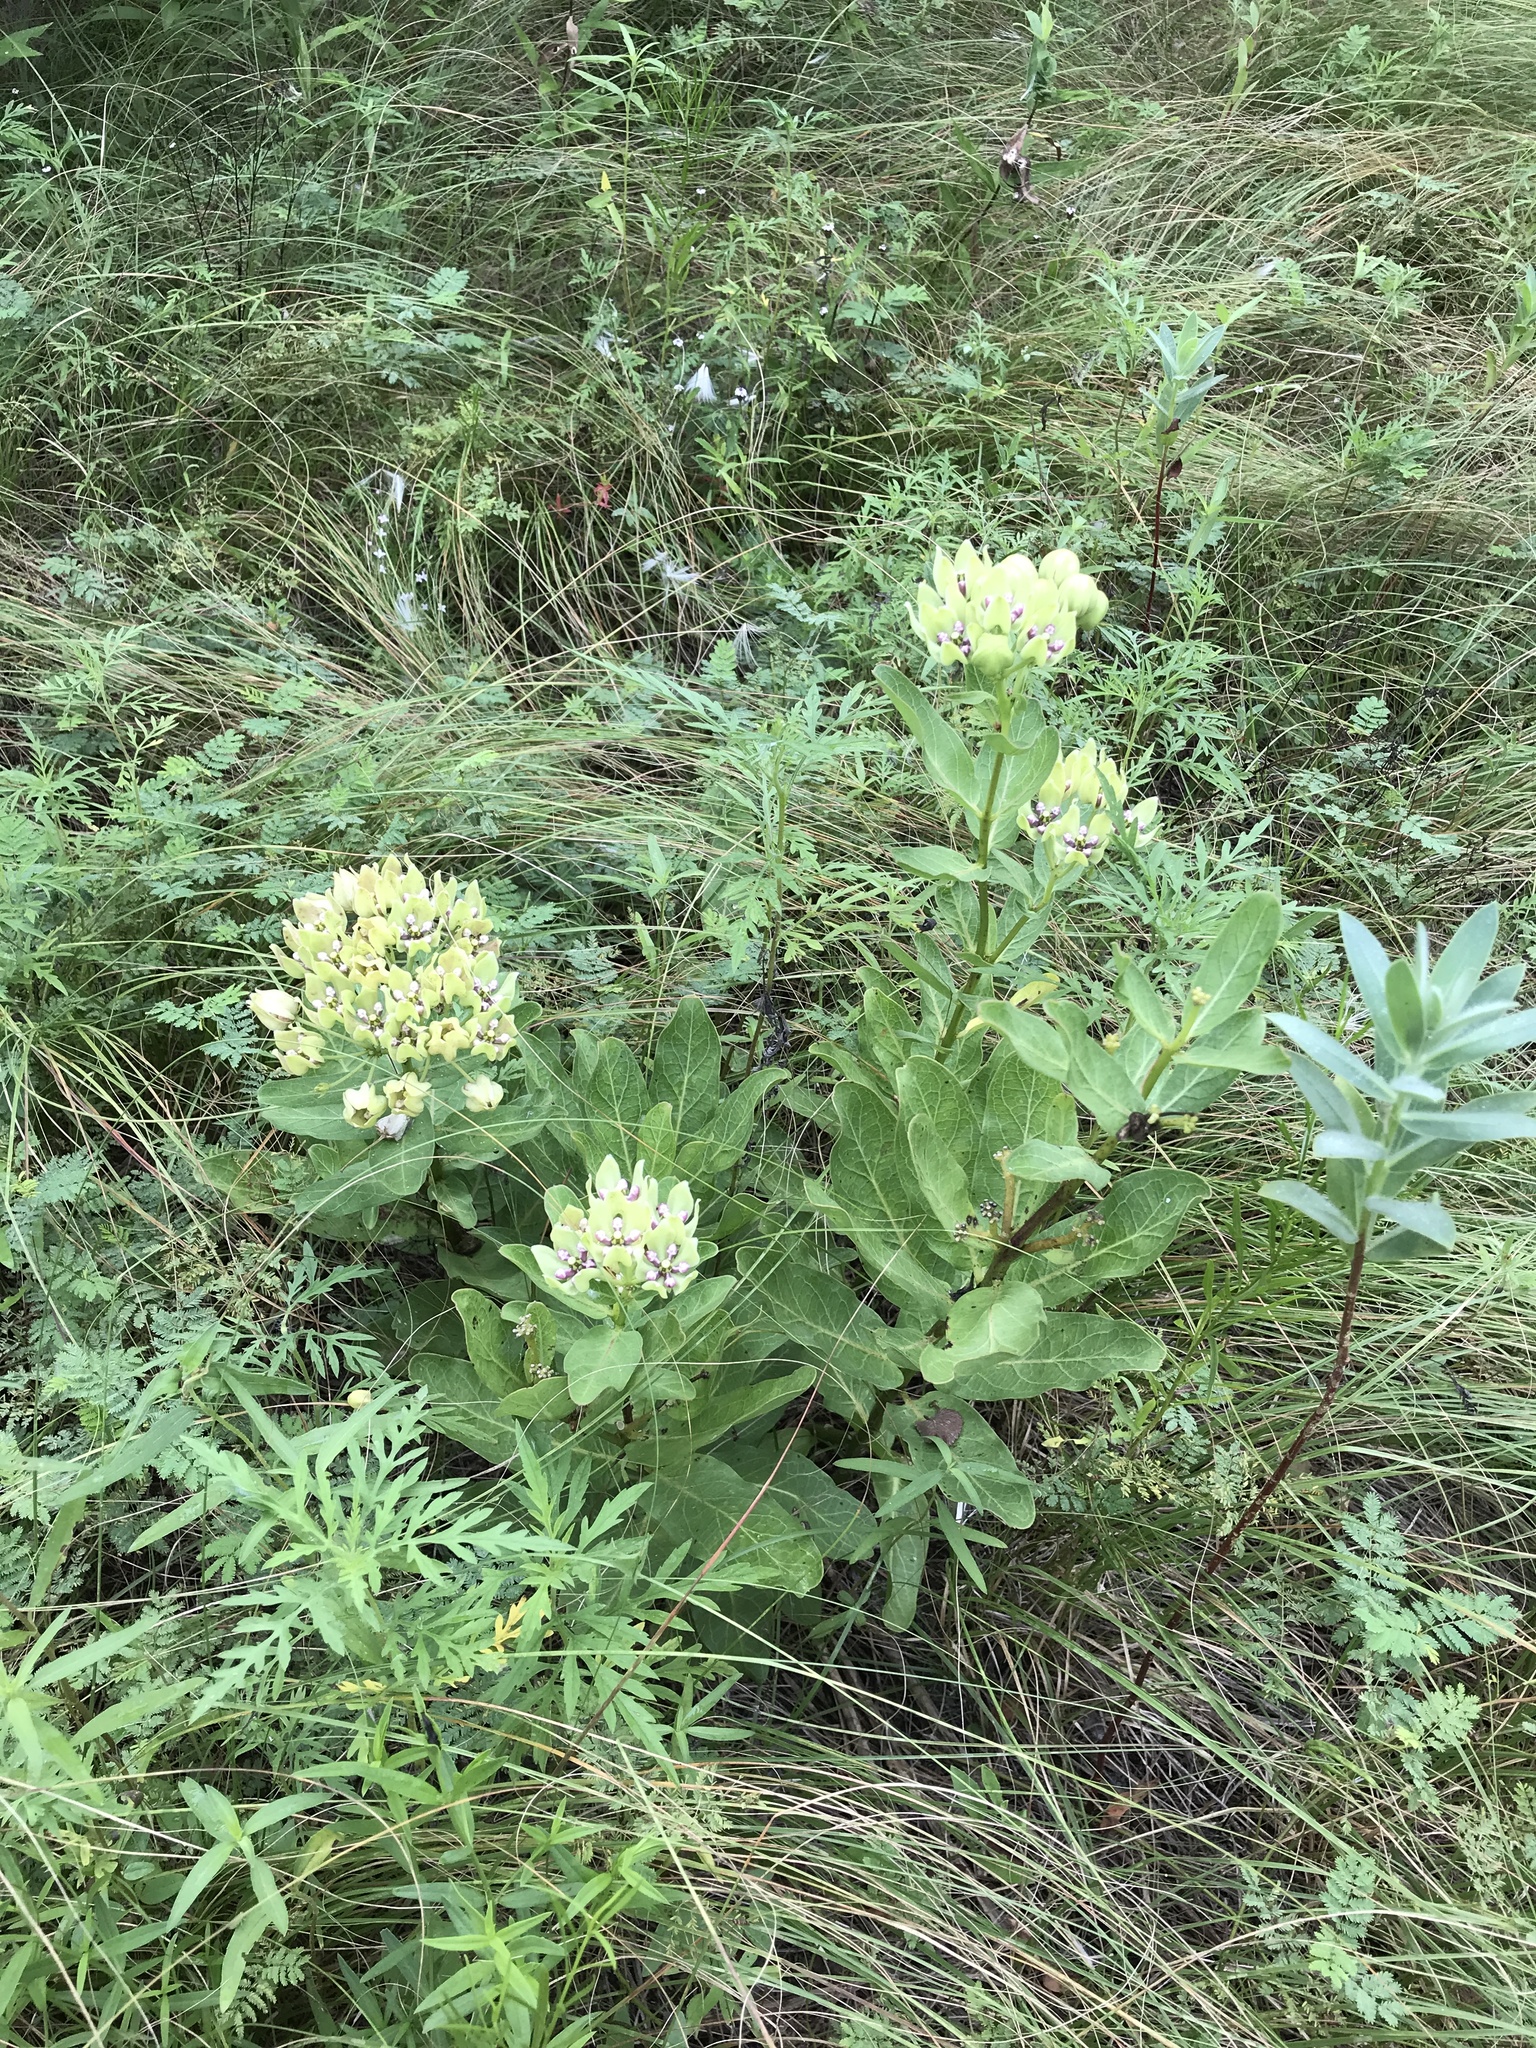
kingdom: Plantae
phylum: Tracheophyta
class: Magnoliopsida
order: Gentianales
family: Apocynaceae
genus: Asclepias
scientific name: Asclepias viridis
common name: Antelope-horns
